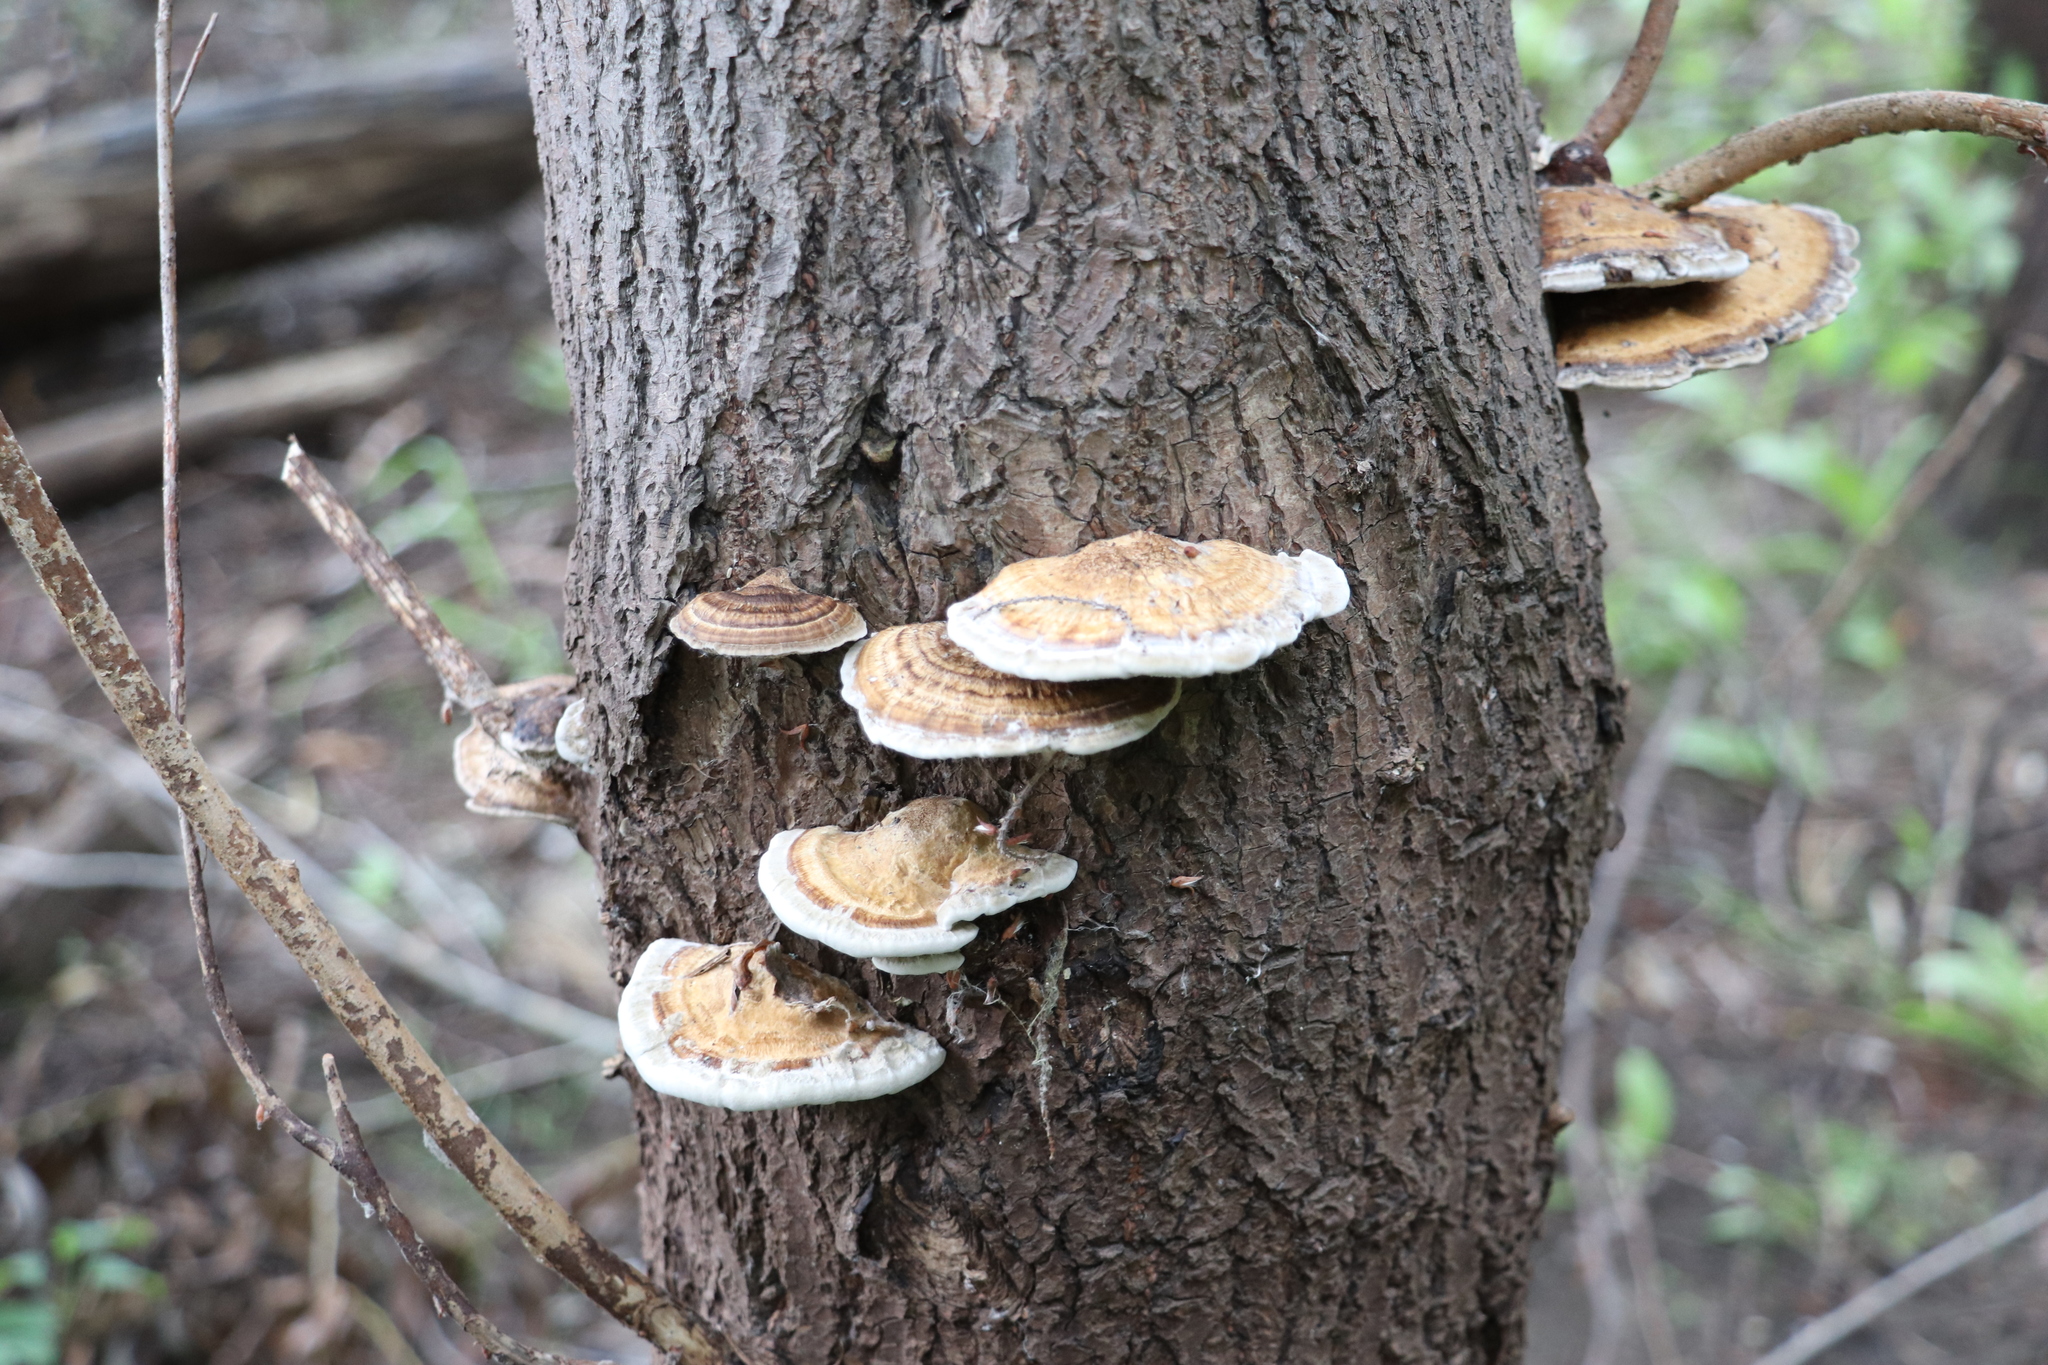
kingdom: Fungi
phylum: Basidiomycota
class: Agaricomycetes
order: Polyporales
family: Polyporaceae
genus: Daedaleopsis
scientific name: Daedaleopsis confragosa
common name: Blushing bracket
